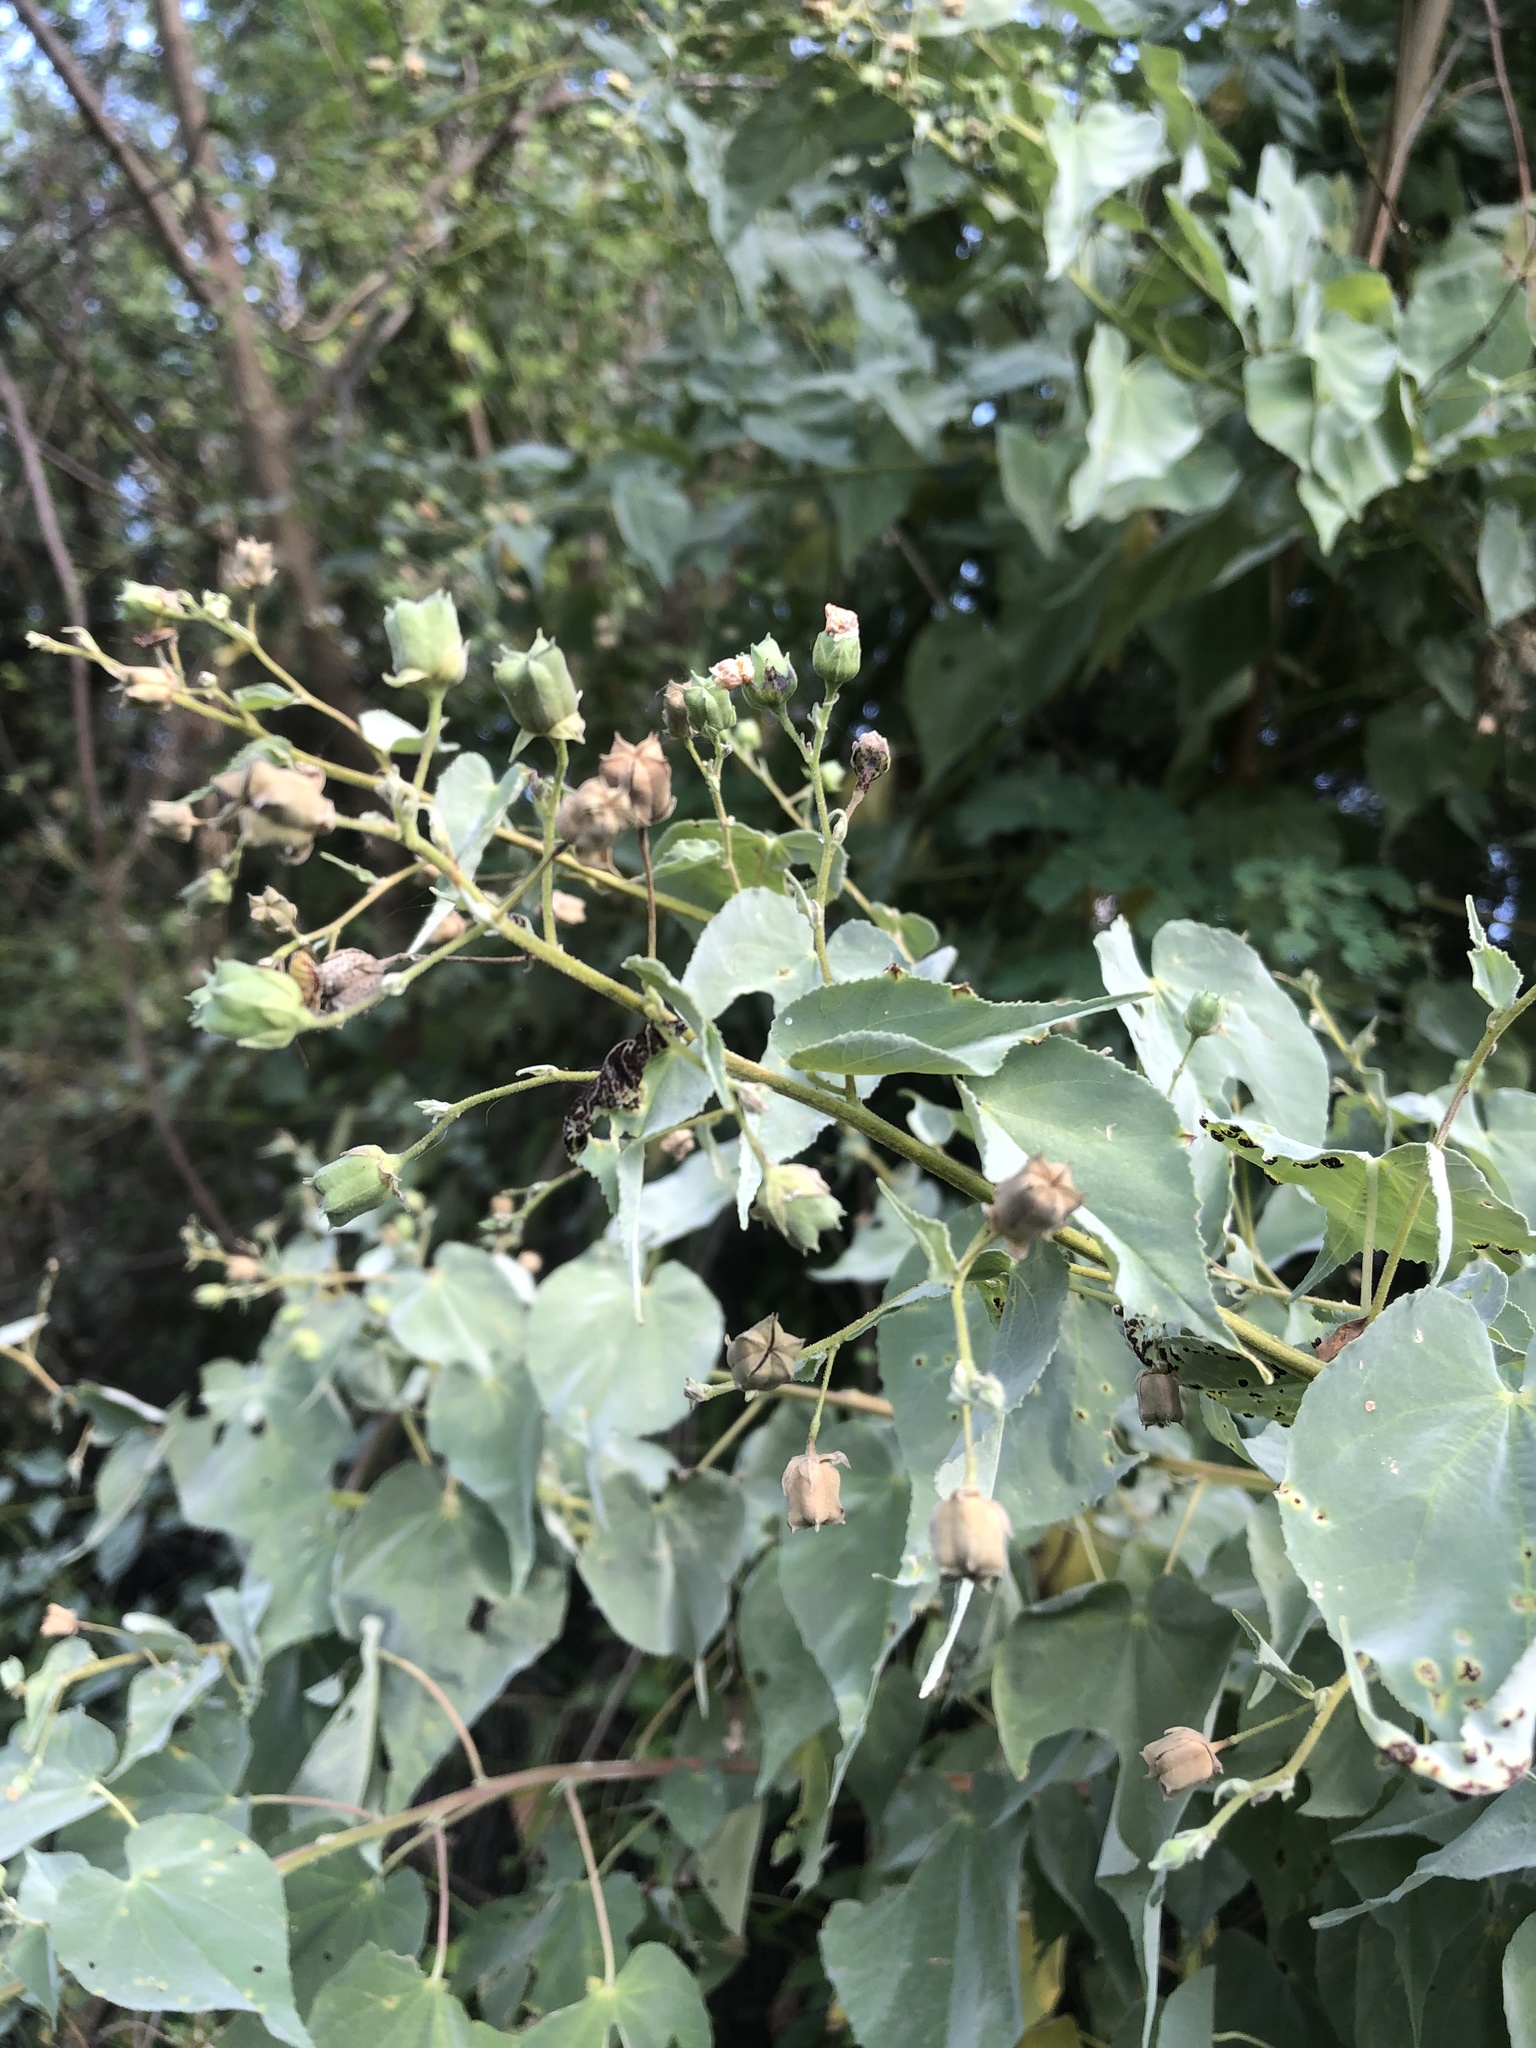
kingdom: Plantae
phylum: Tracheophyta
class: Magnoliopsida
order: Malvales
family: Malvaceae
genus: Abutilon
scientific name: Abutilon trisulcatum
